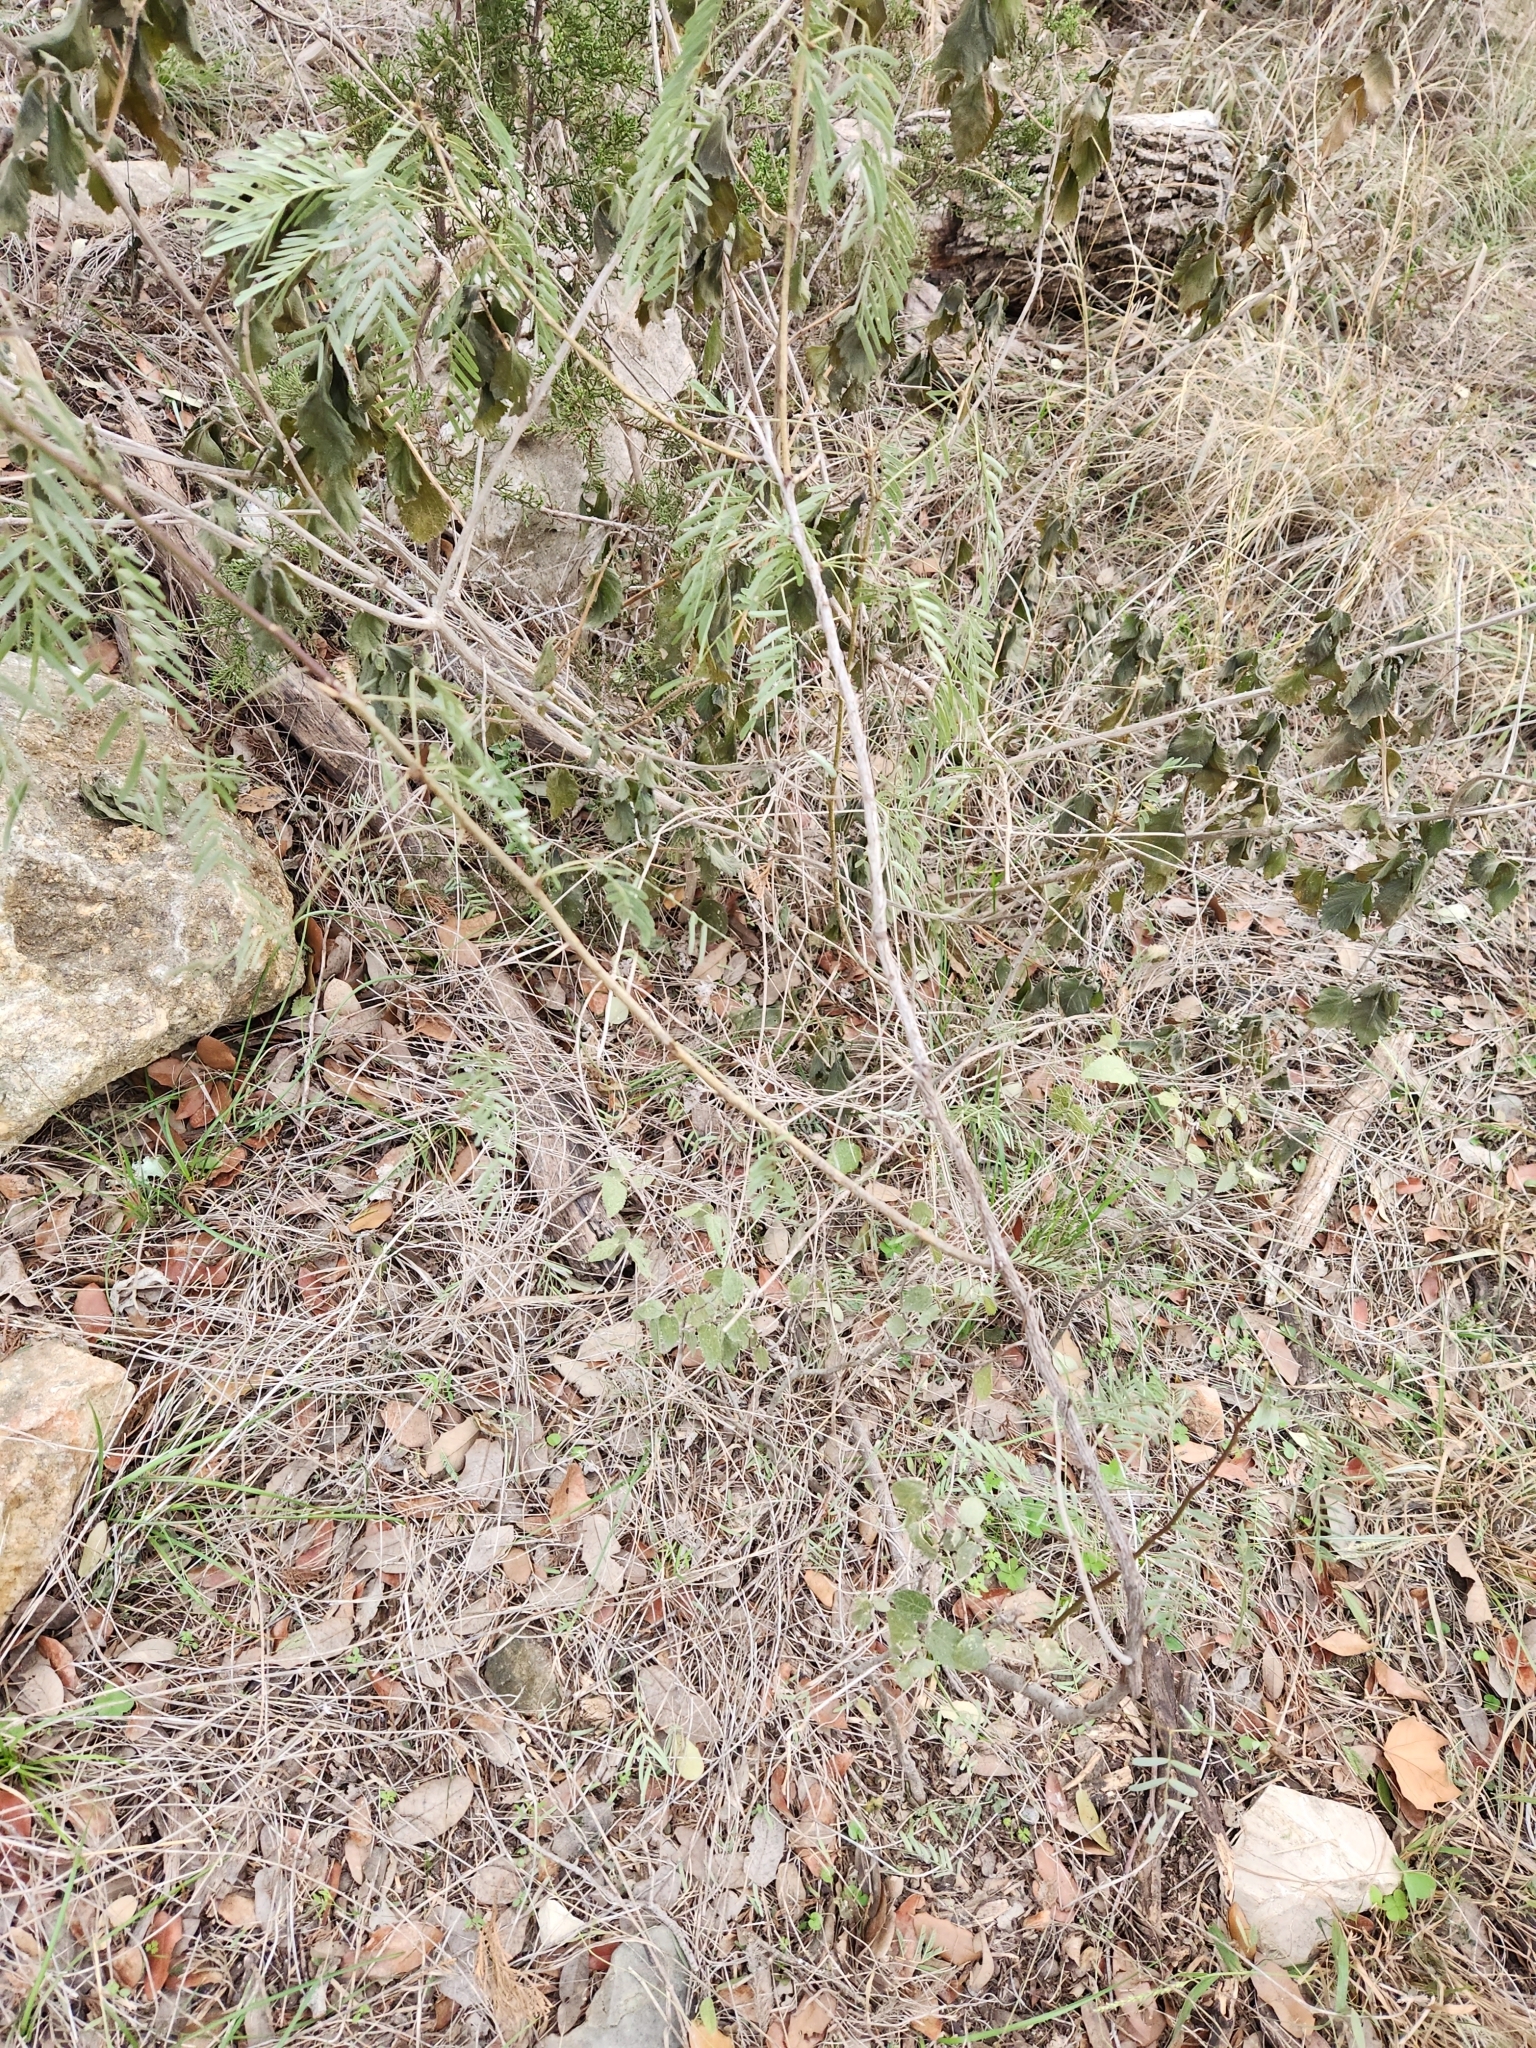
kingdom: Plantae
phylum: Tracheophyta
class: Magnoliopsida
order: Fabales
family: Fabaceae
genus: Prosopis
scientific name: Prosopis glandulosa
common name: Honey mesquite
